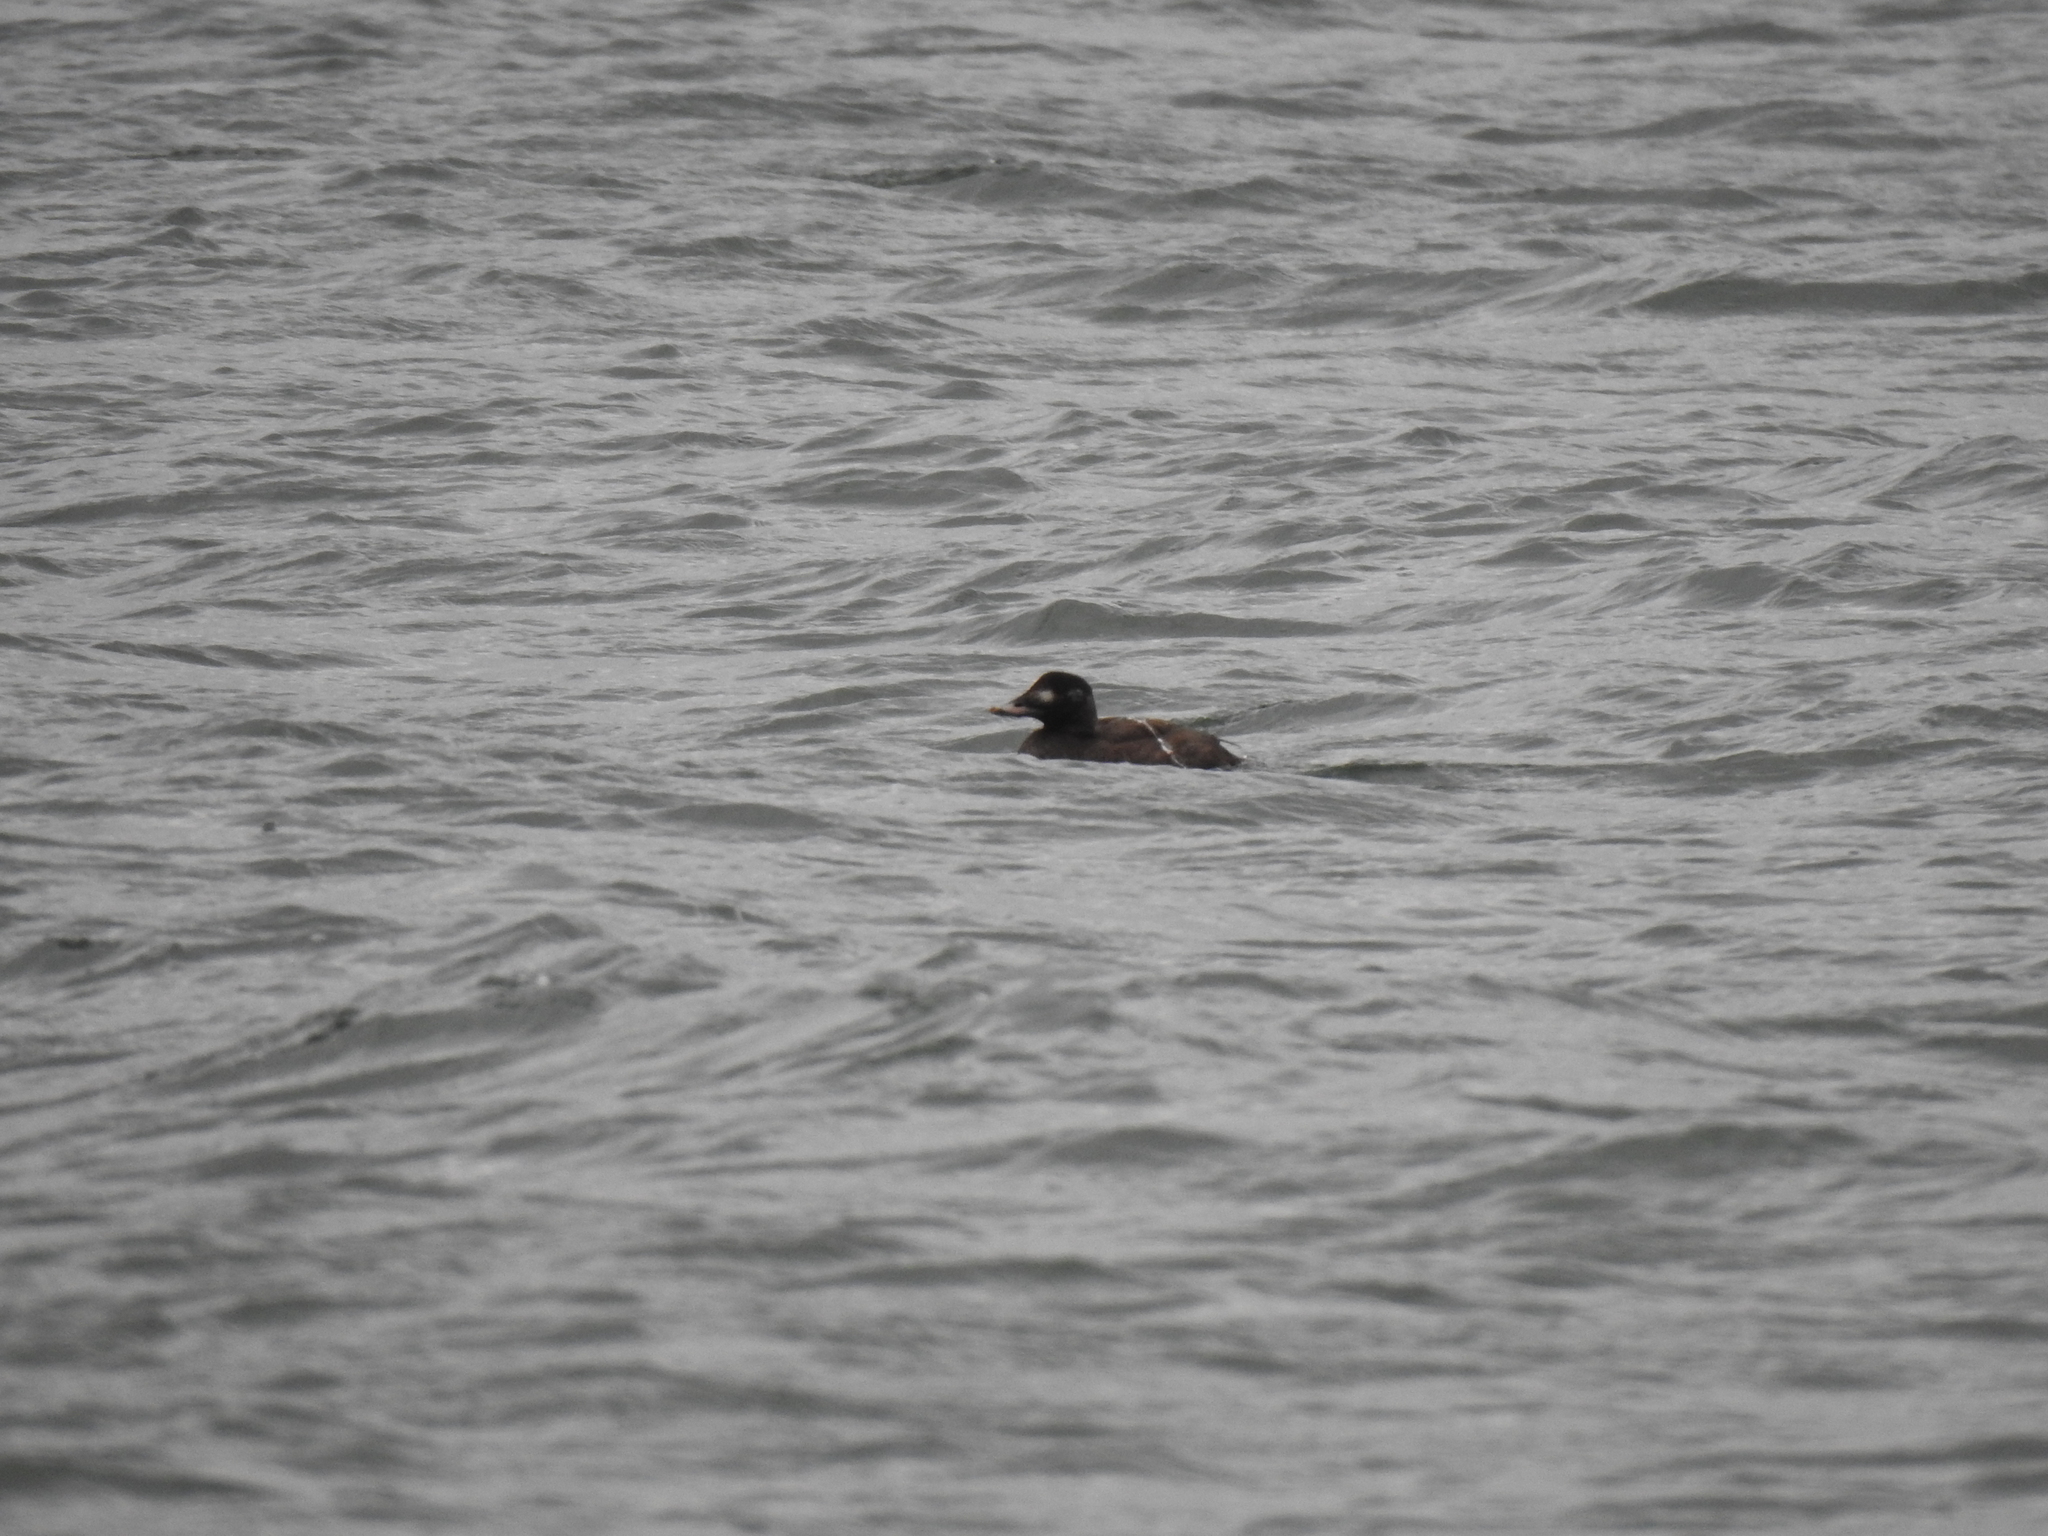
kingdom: Animalia
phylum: Chordata
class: Aves
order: Anseriformes
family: Anatidae
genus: Melanitta
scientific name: Melanitta deglandi
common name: White-winged scoter
